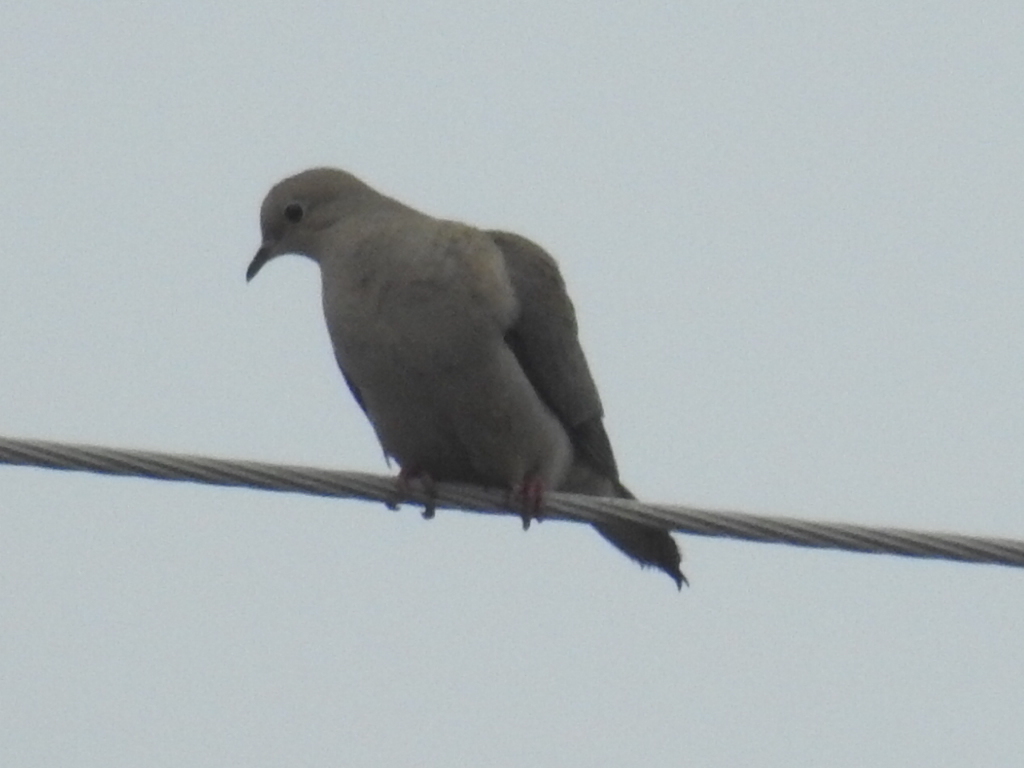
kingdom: Animalia
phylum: Chordata
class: Aves
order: Columbiformes
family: Columbidae
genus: Zenaida
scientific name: Zenaida macroura
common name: Mourning dove
